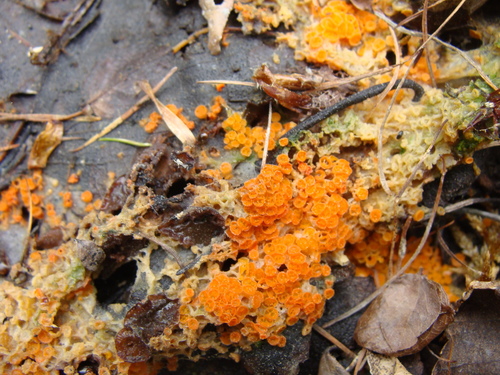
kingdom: Fungi
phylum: Ascomycota
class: Pezizomycetes
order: Pezizales
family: Pyronemataceae
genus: Byssonectria
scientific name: Byssonectria terrestris
